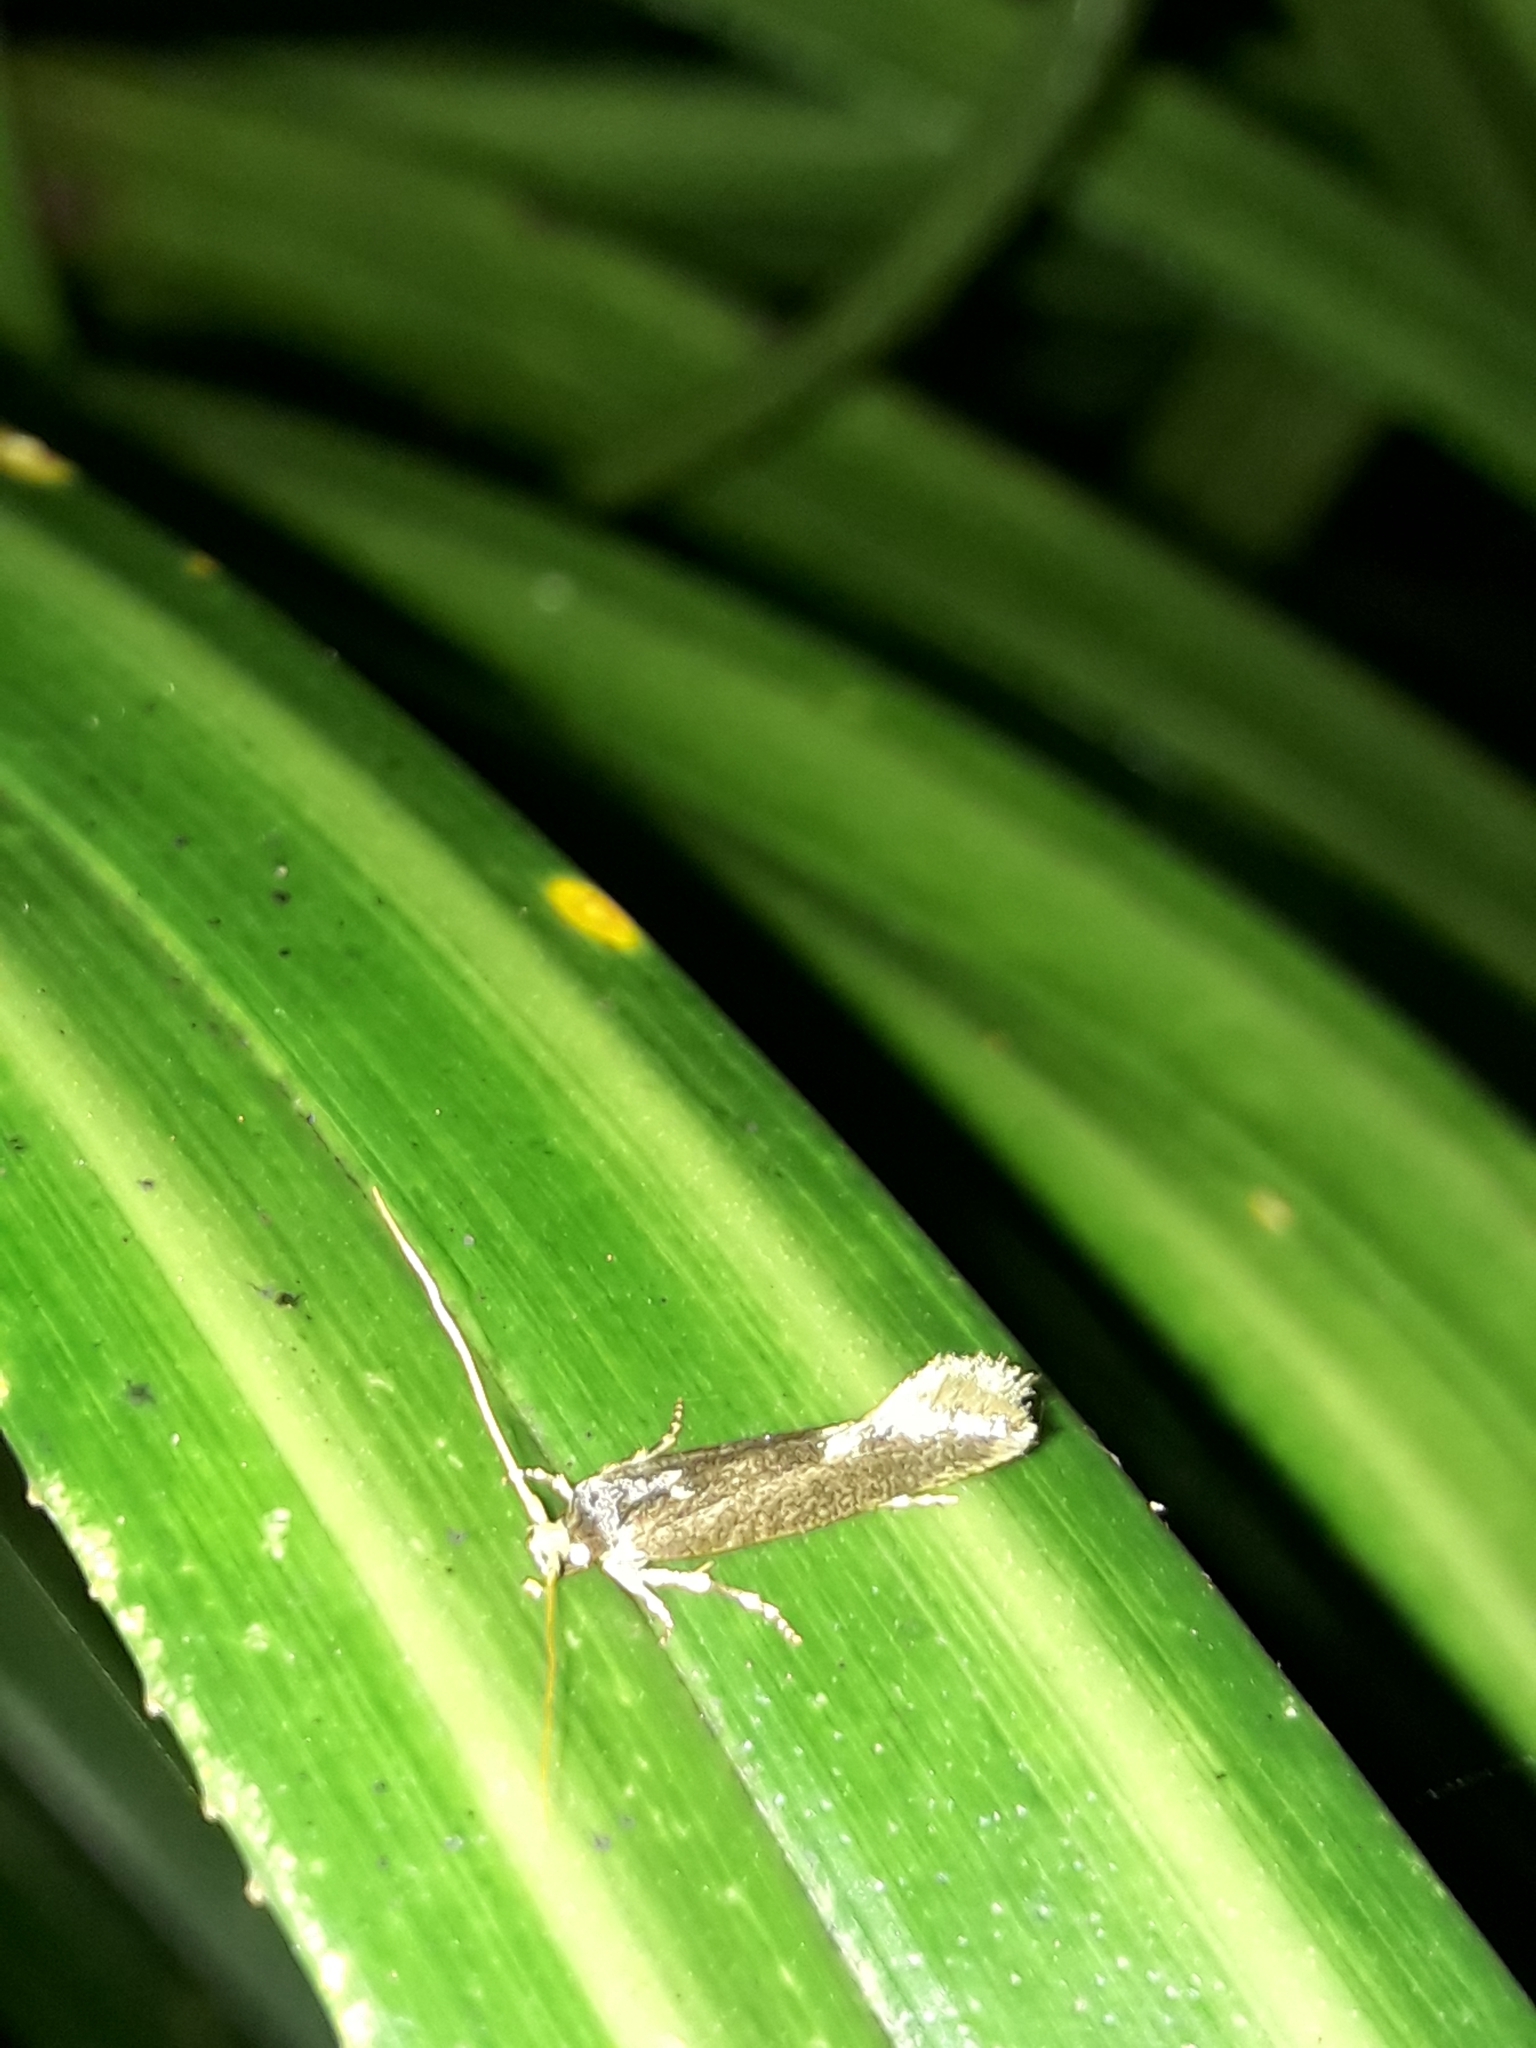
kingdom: Animalia
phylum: Arthropoda
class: Insecta
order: Lepidoptera
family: Tineidae
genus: Opogona
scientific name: Opogona omoscopa
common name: Moth
